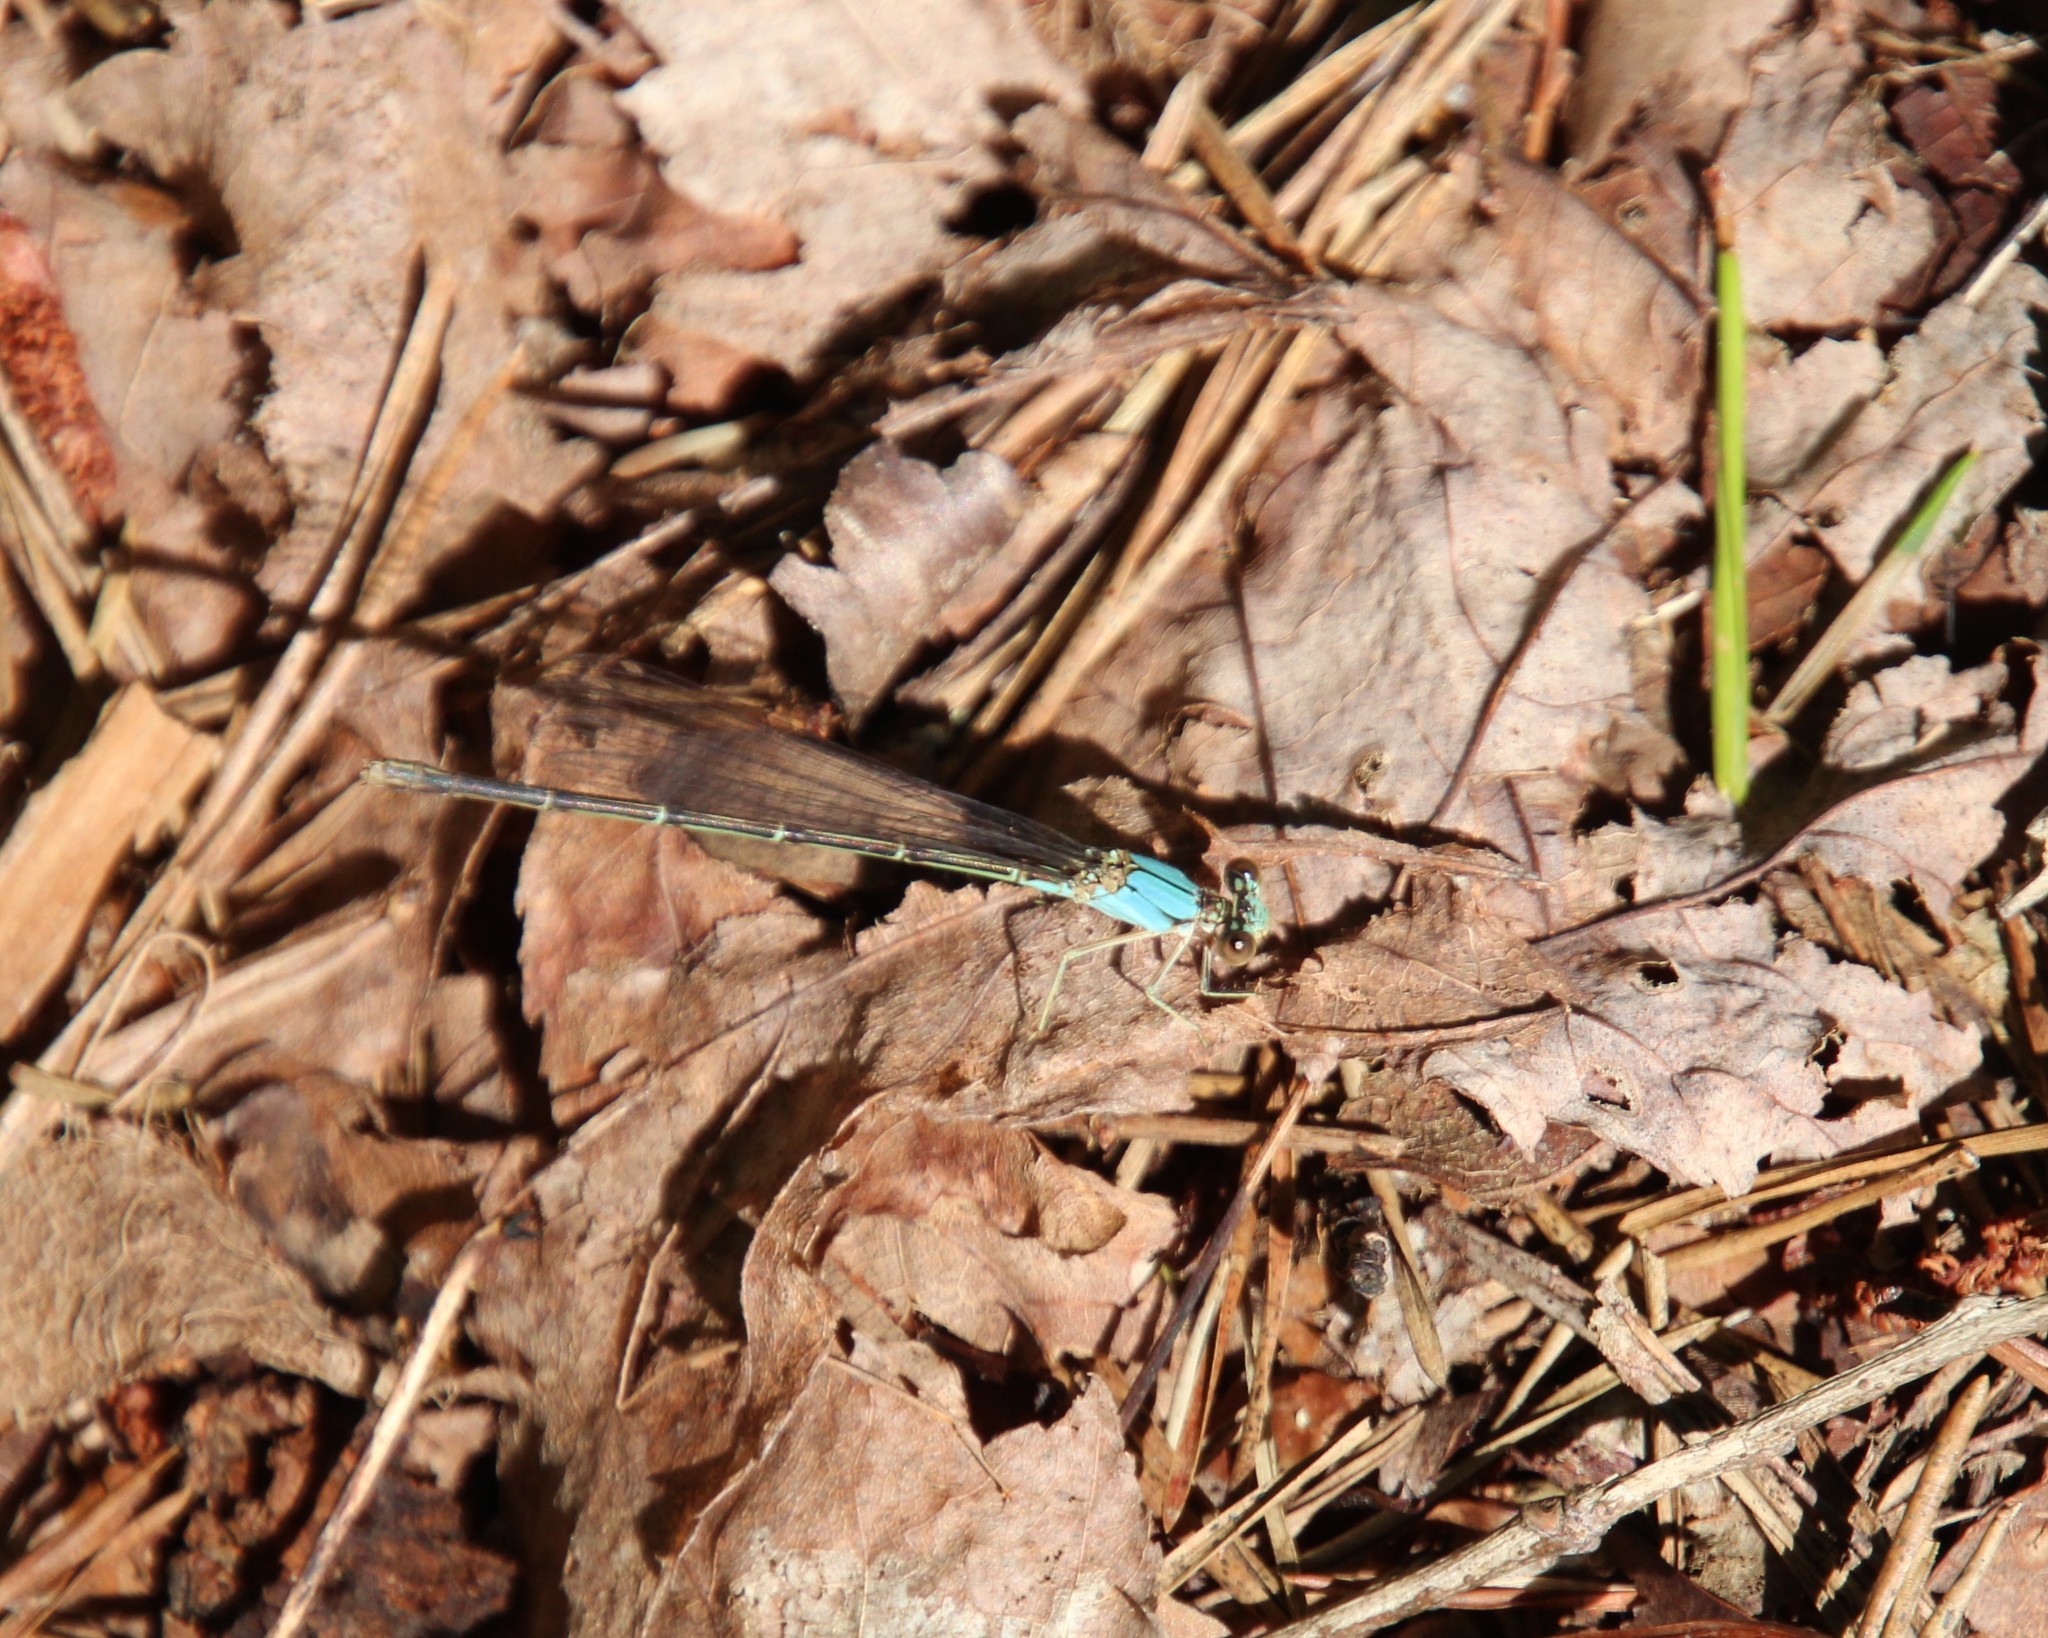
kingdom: Animalia
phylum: Arthropoda
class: Insecta
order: Odonata
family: Coenagrionidae
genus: Argia
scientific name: Argia apicalis
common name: Blue-fronted dancer
